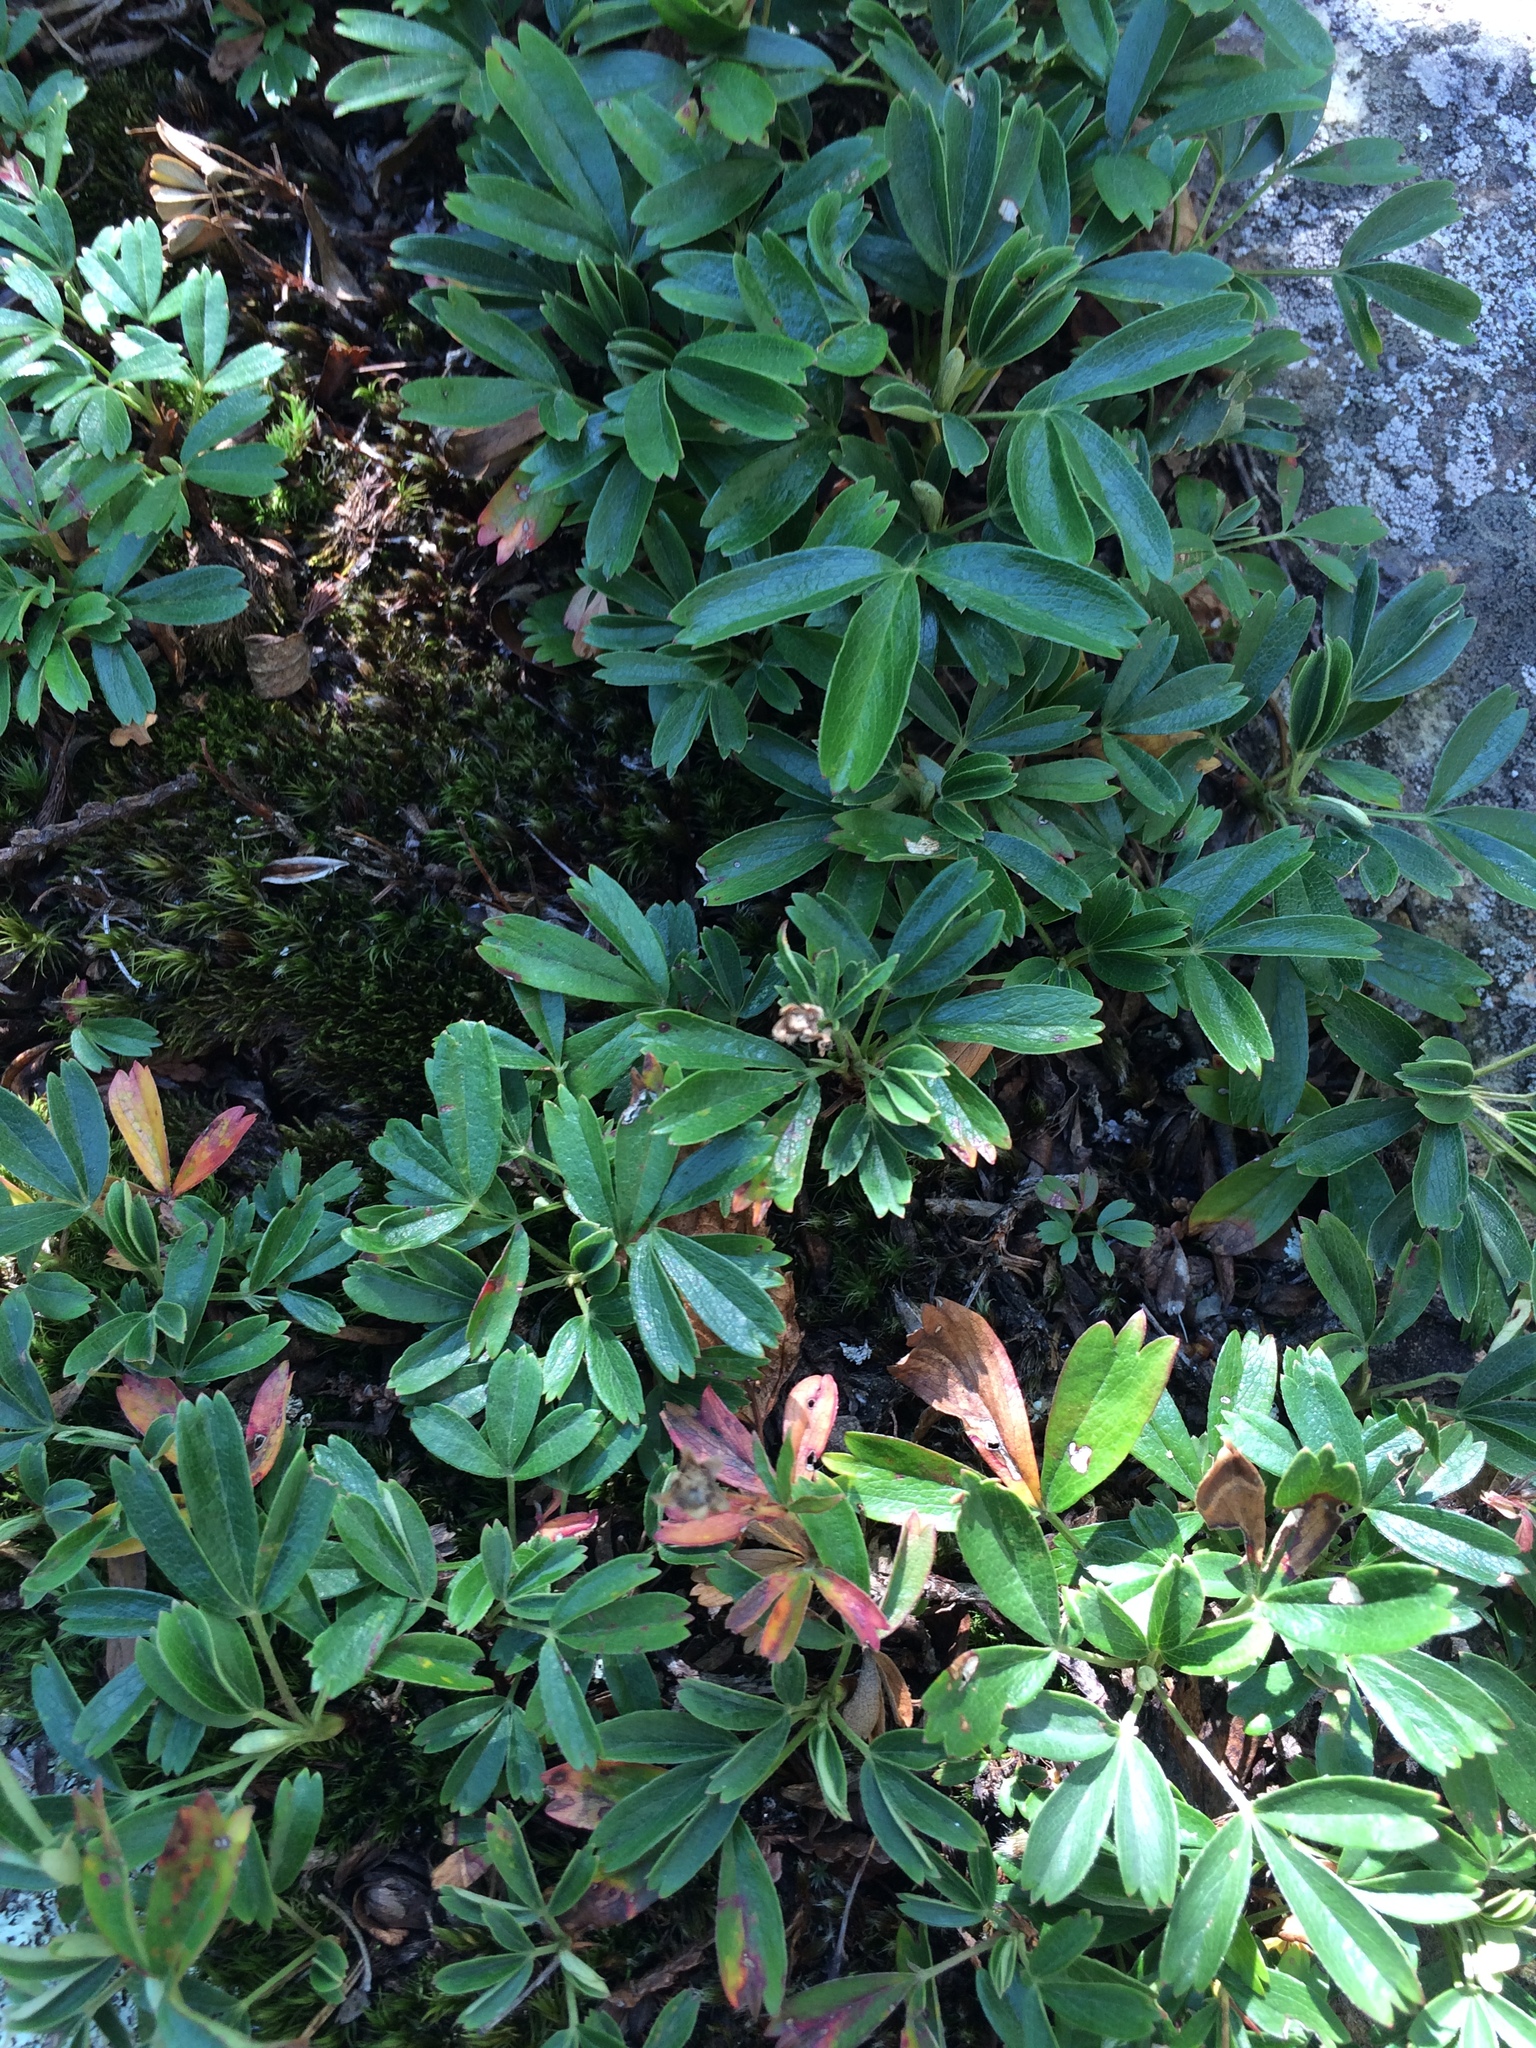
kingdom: Plantae
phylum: Tracheophyta
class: Magnoliopsida
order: Rosales
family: Rosaceae
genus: Sibbaldia
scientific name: Sibbaldia tridentata
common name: Three-toothed cinquefoil
